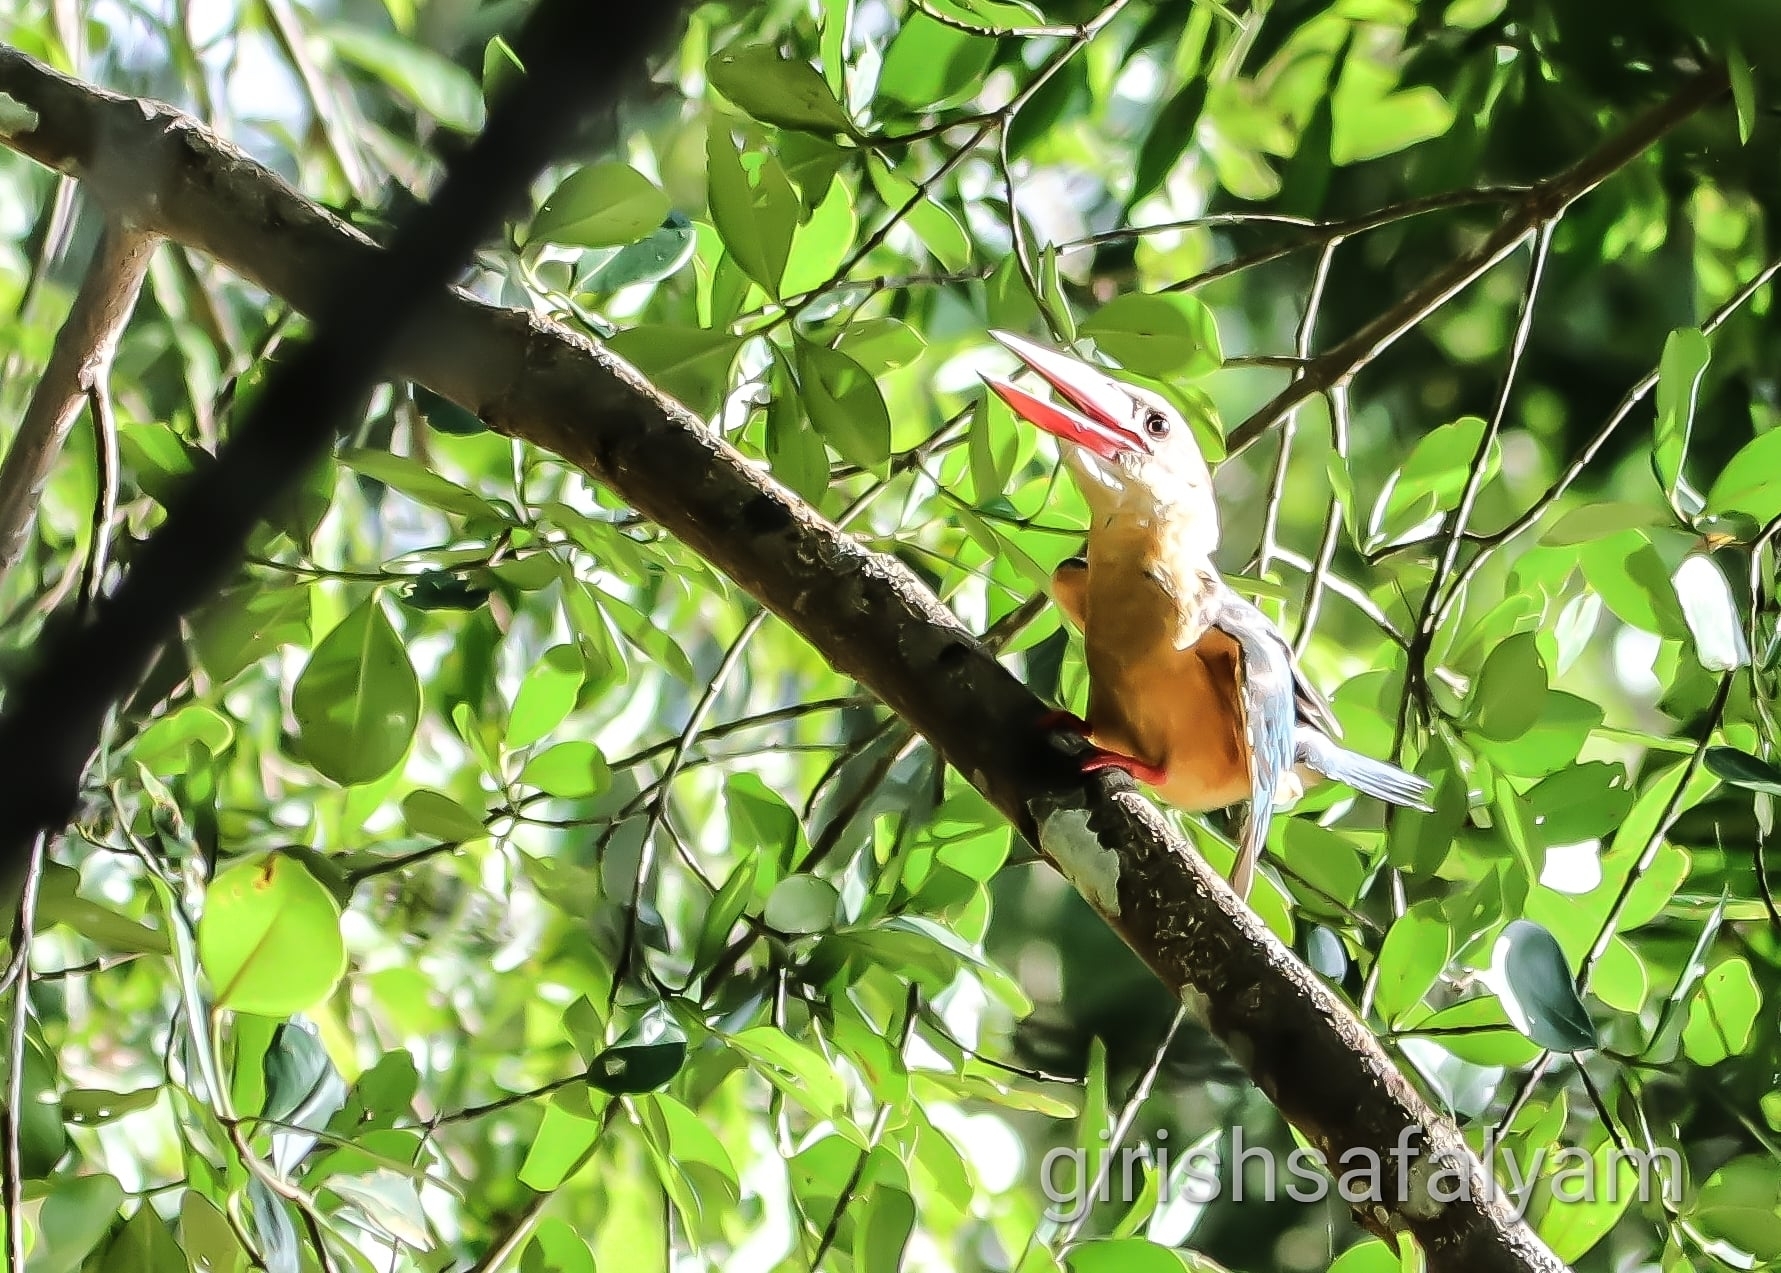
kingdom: Animalia
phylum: Chordata
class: Aves
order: Coraciiformes
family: Alcedinidae
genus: Pelargopsis
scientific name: Pelargopsis capensis
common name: Stork-billed kingfisher
